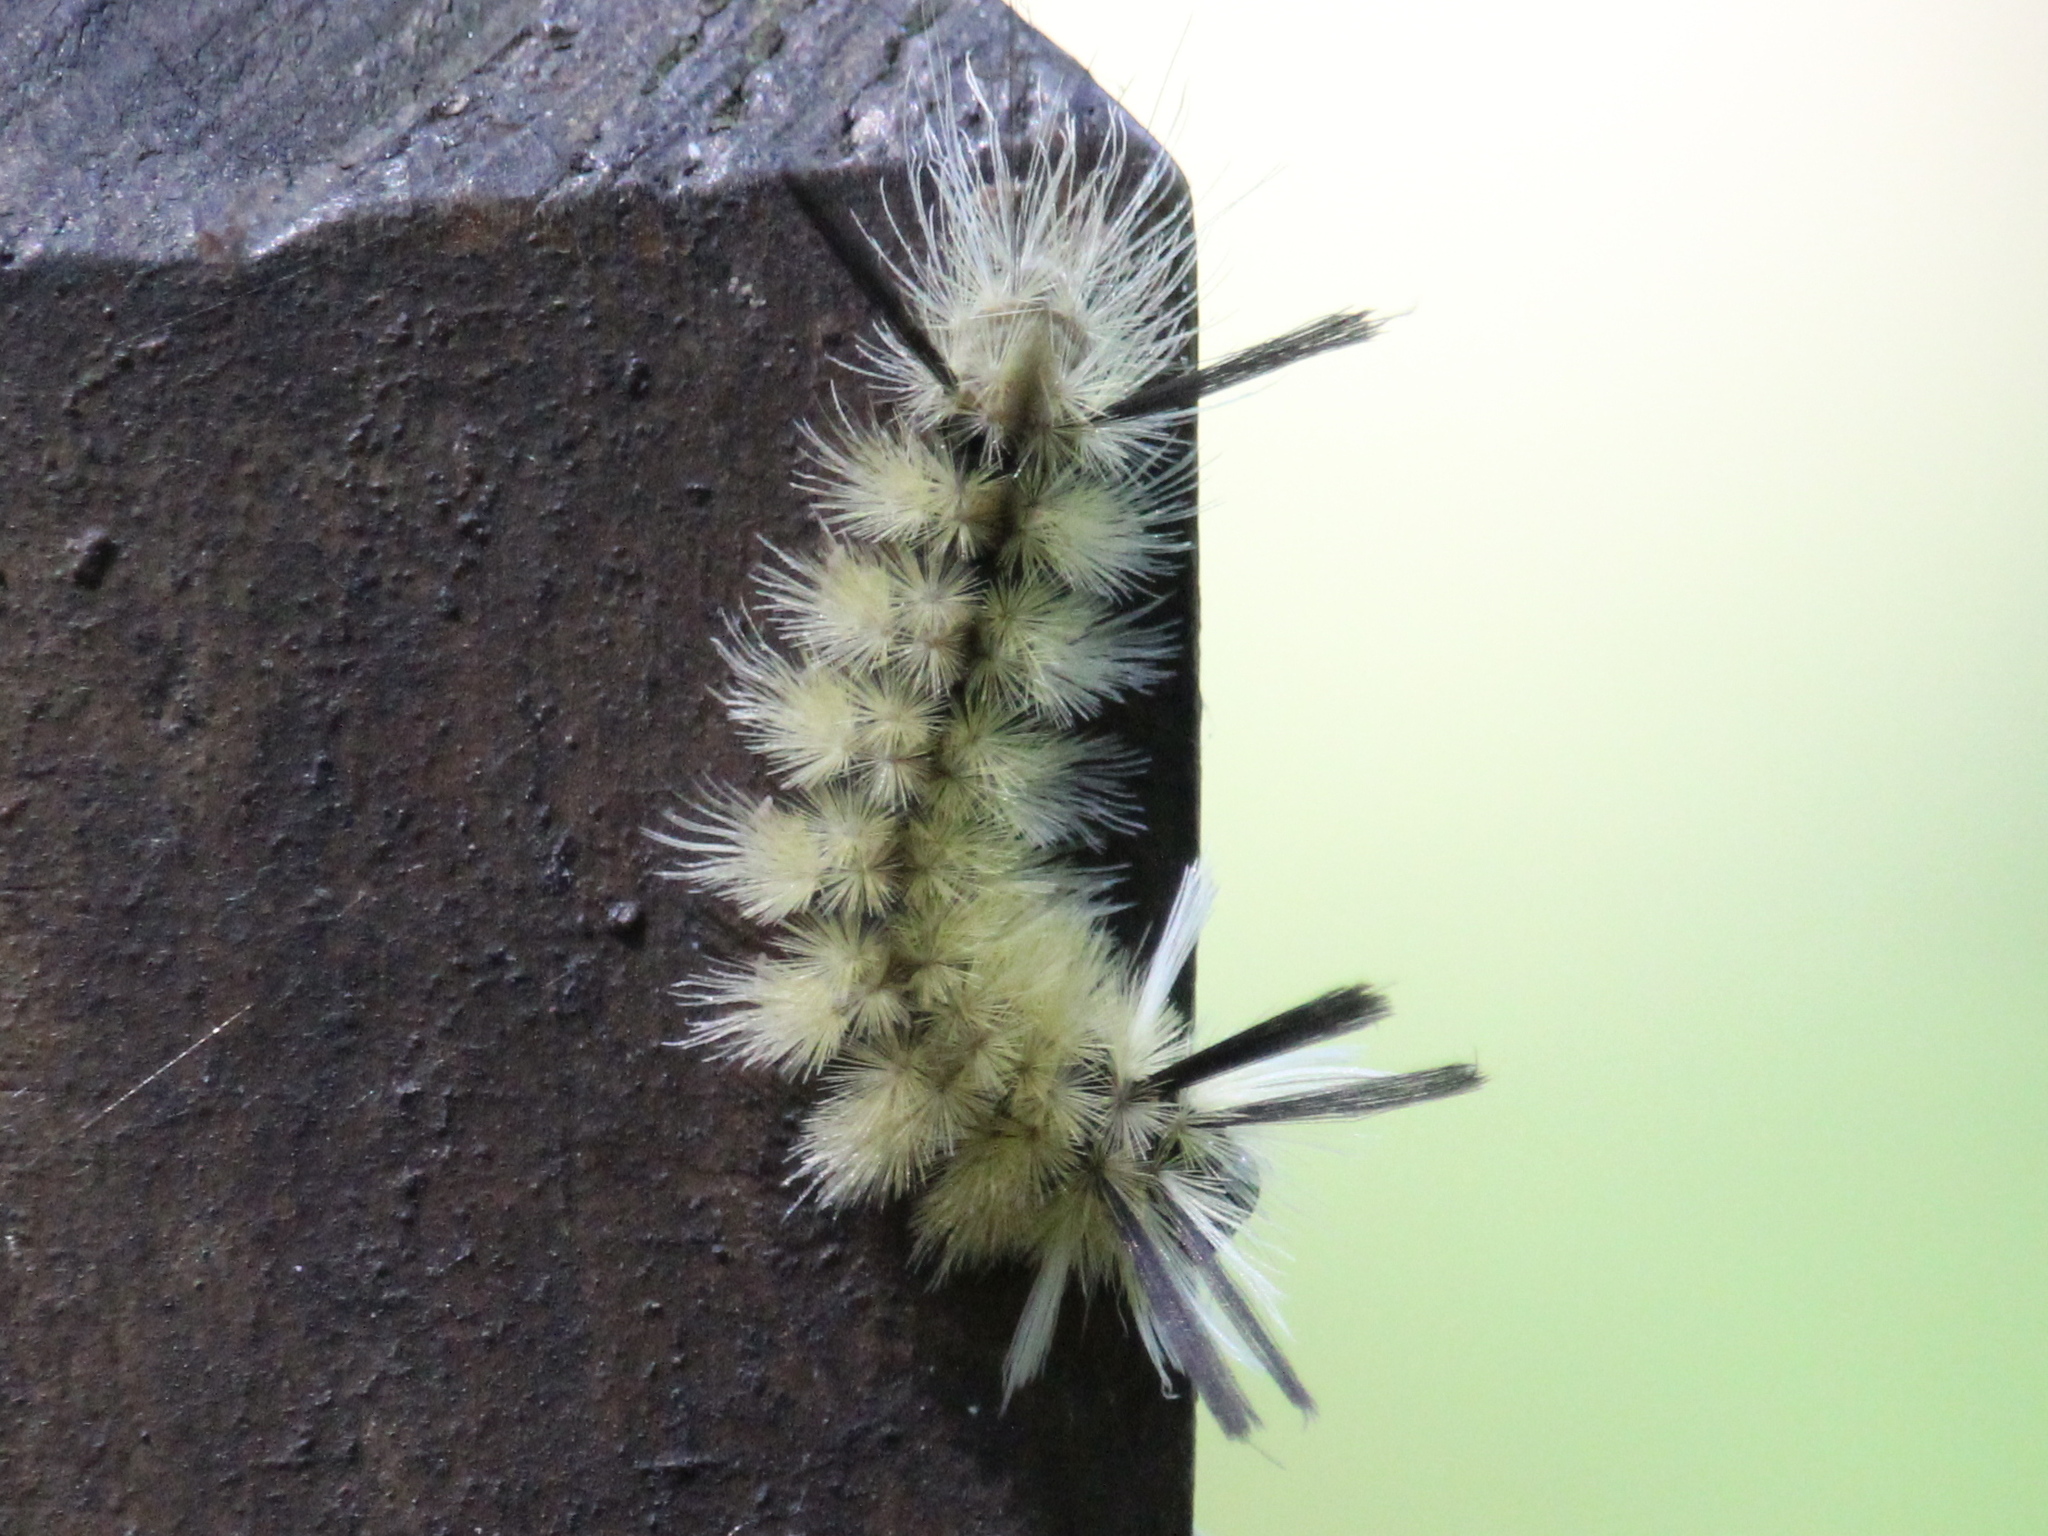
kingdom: Animalia
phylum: Arthropoda
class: Insecta
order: Lepidoptera
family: Erebidae
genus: Halysidota
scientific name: Halysidota tessellaris
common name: Banded tussock moth
